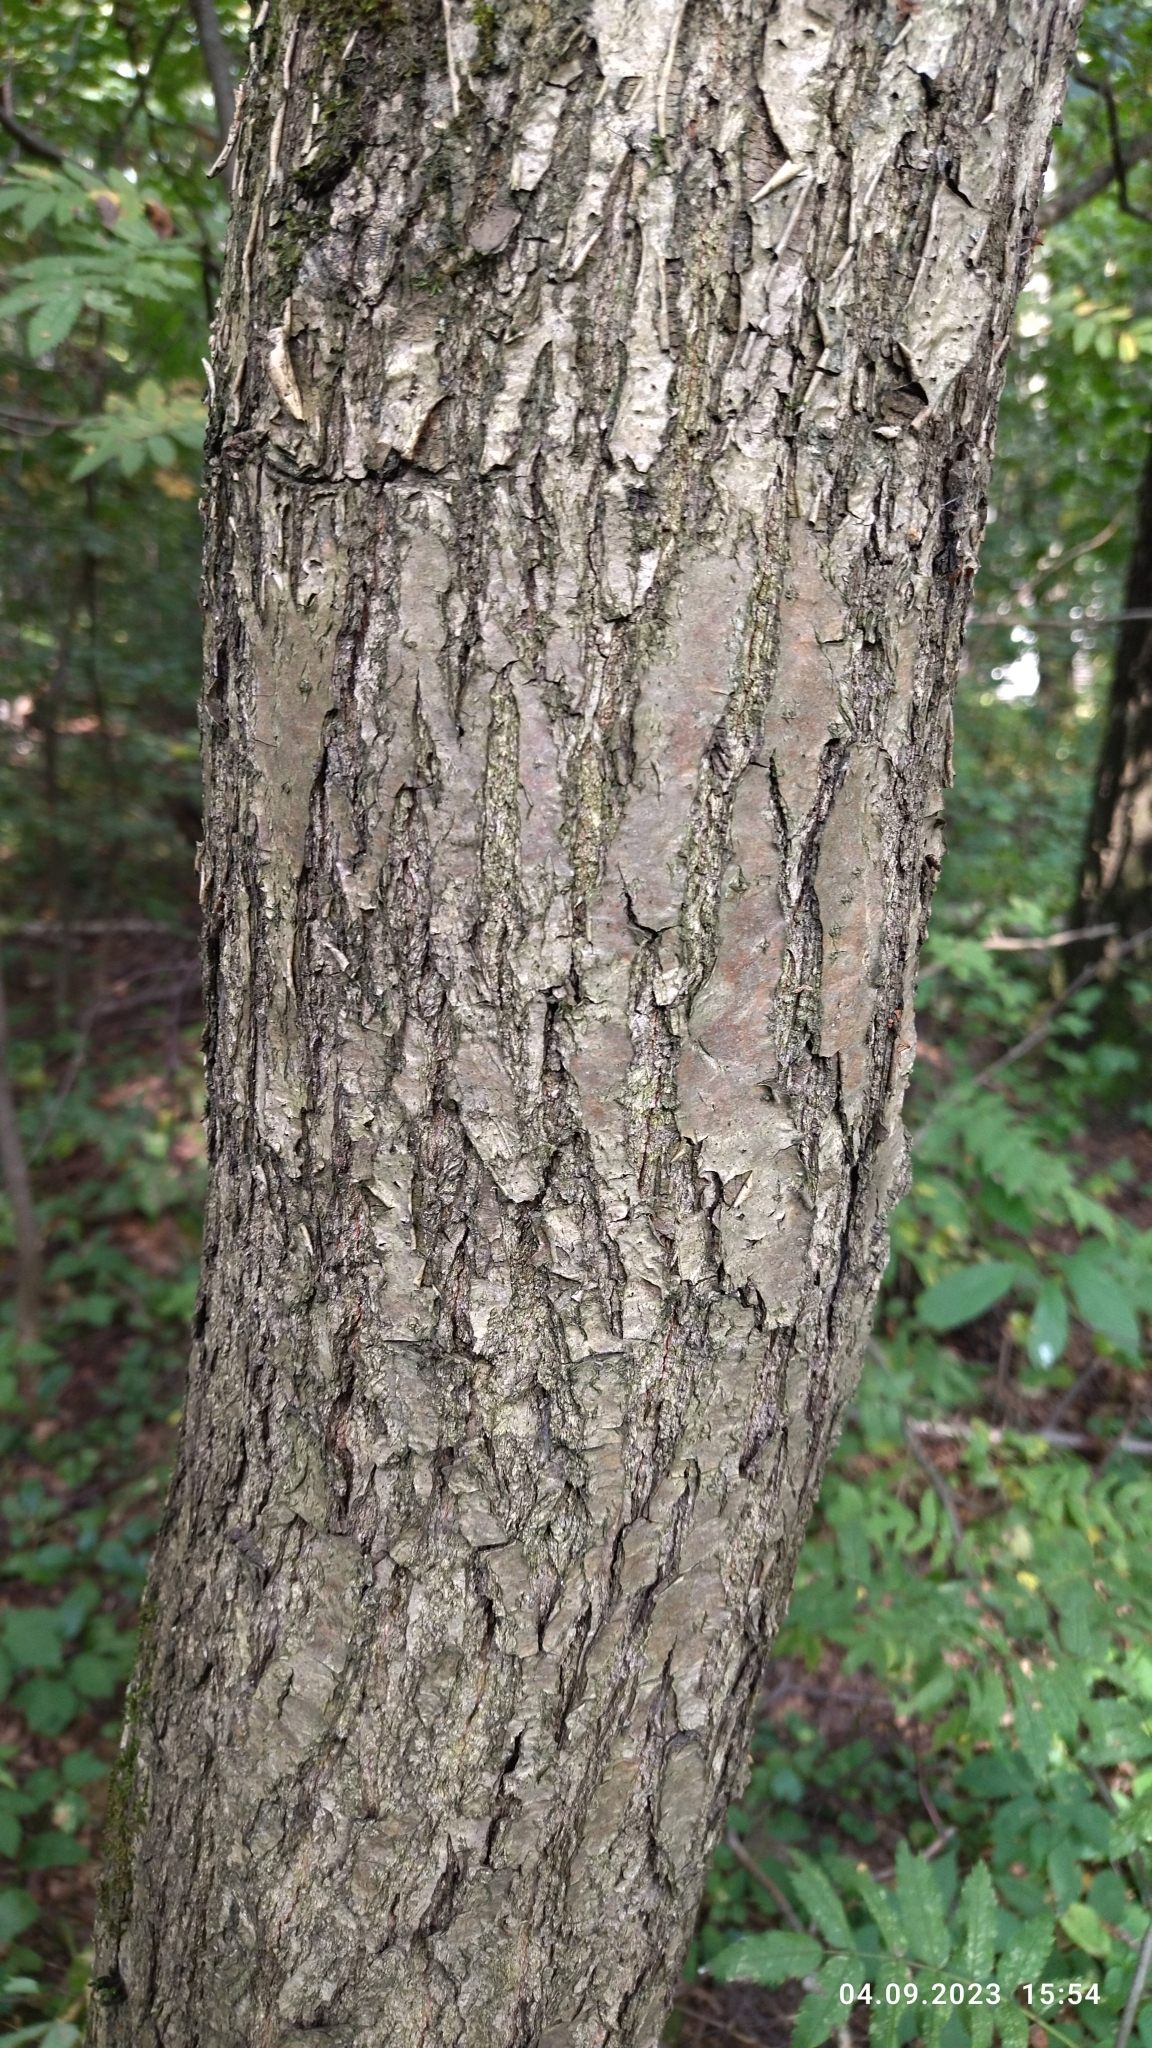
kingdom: Plantae
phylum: Tracheophyta
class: Magnoliopsida
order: Fagales
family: Fagaceae
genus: Quercus
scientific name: Quercus robur
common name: Pedunculate oak
